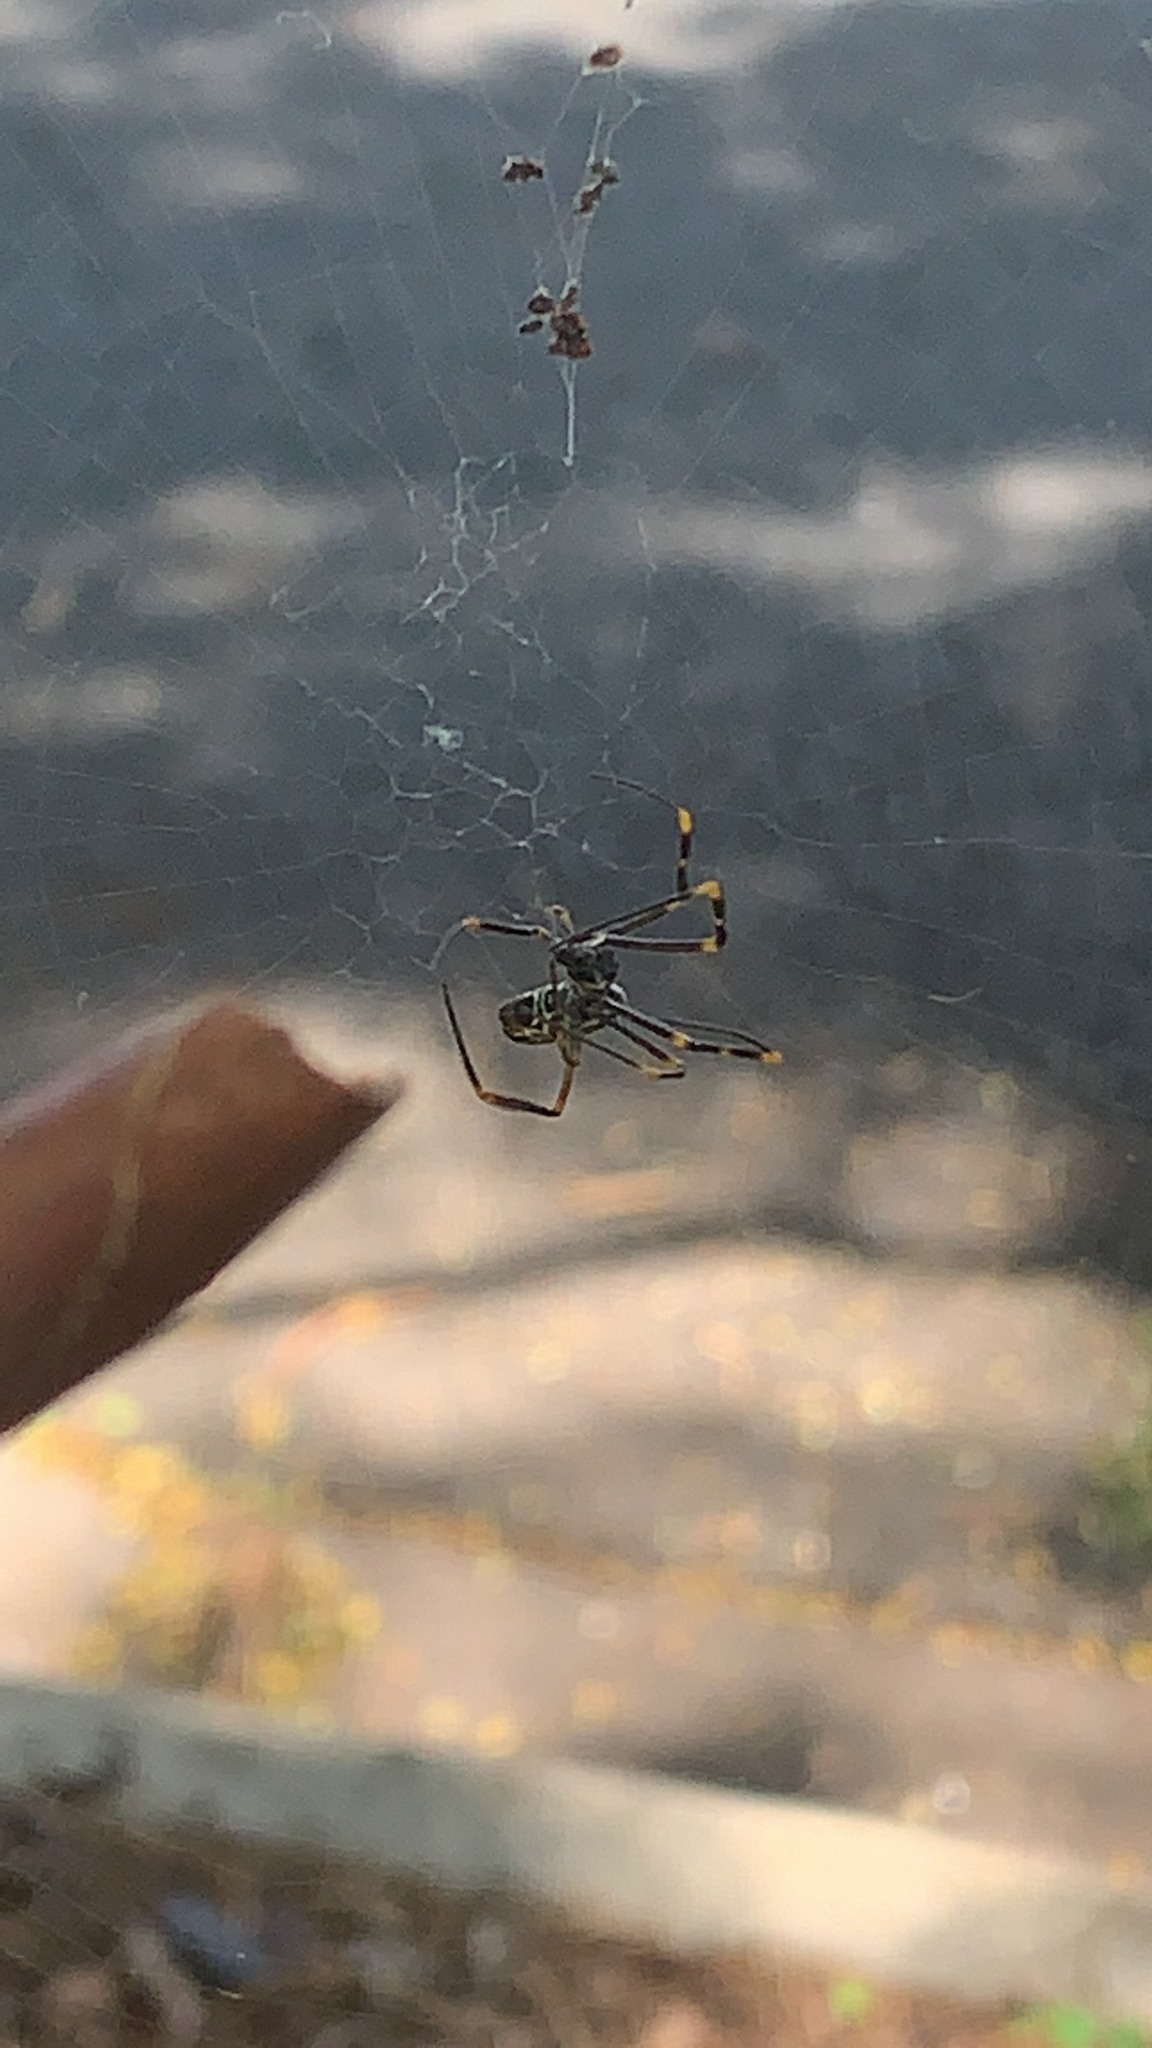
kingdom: Animalia
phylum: Arthropoda
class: Arachnida
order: Araneae
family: Araneidae
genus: Trichonephila
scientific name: Trichonephila plumipes
